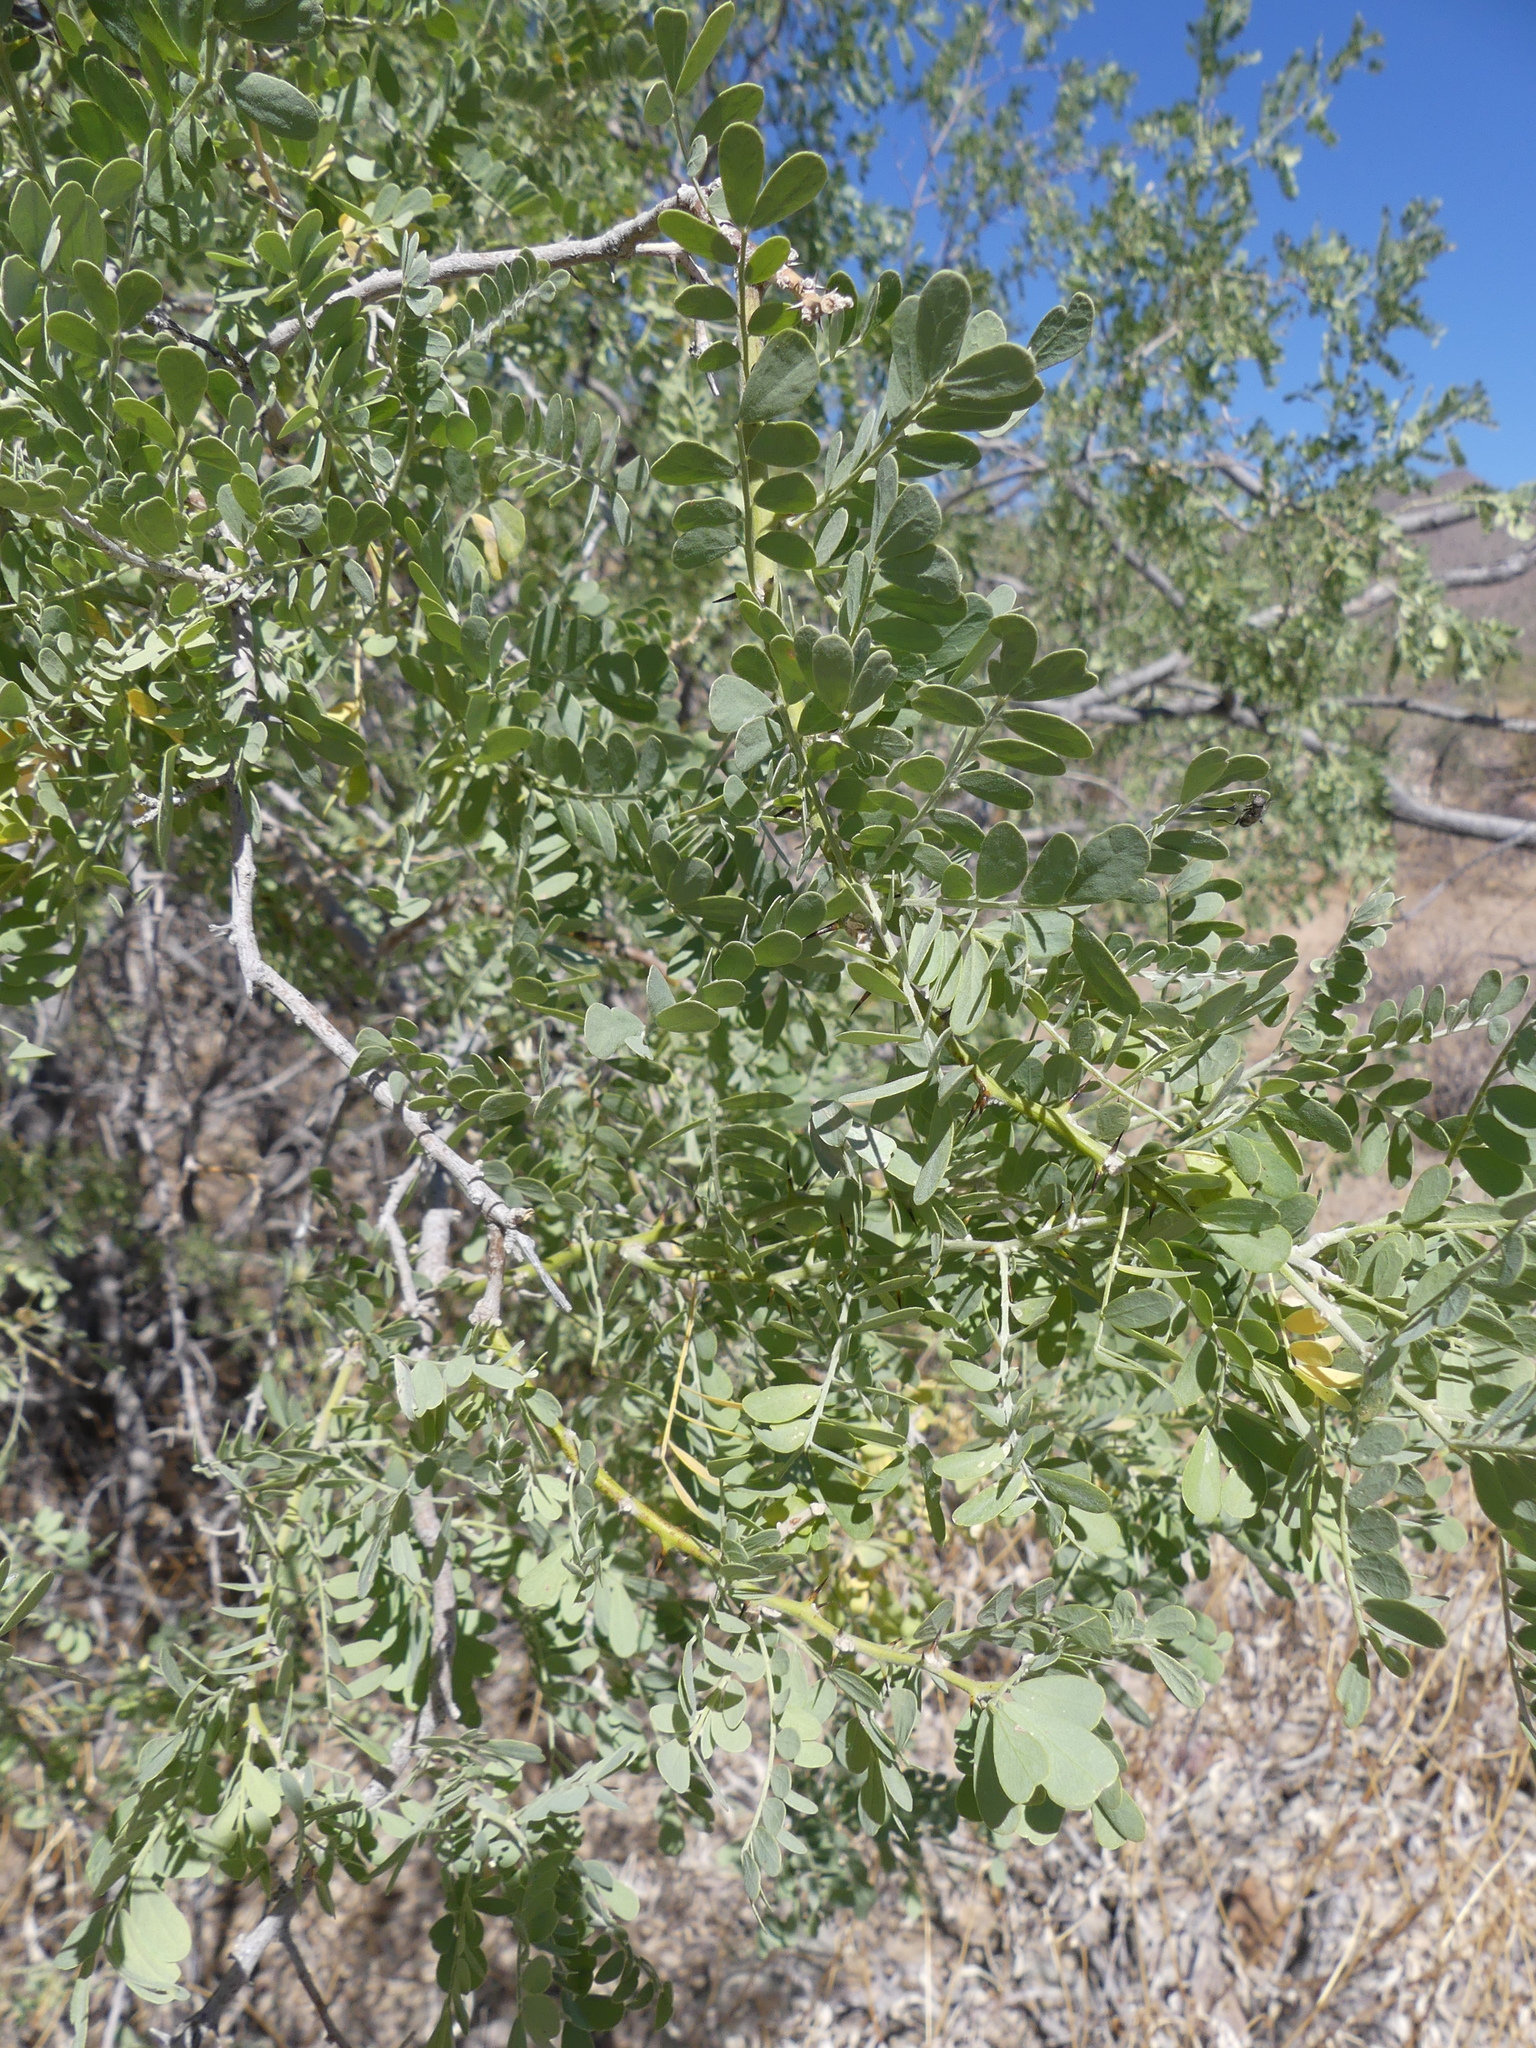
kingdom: Plantae
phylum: Tracheophyta
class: Magnoliopsida
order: Fabales
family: Fabaceae
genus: Olneya
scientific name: Olneya tesota
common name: Desert ironwood
